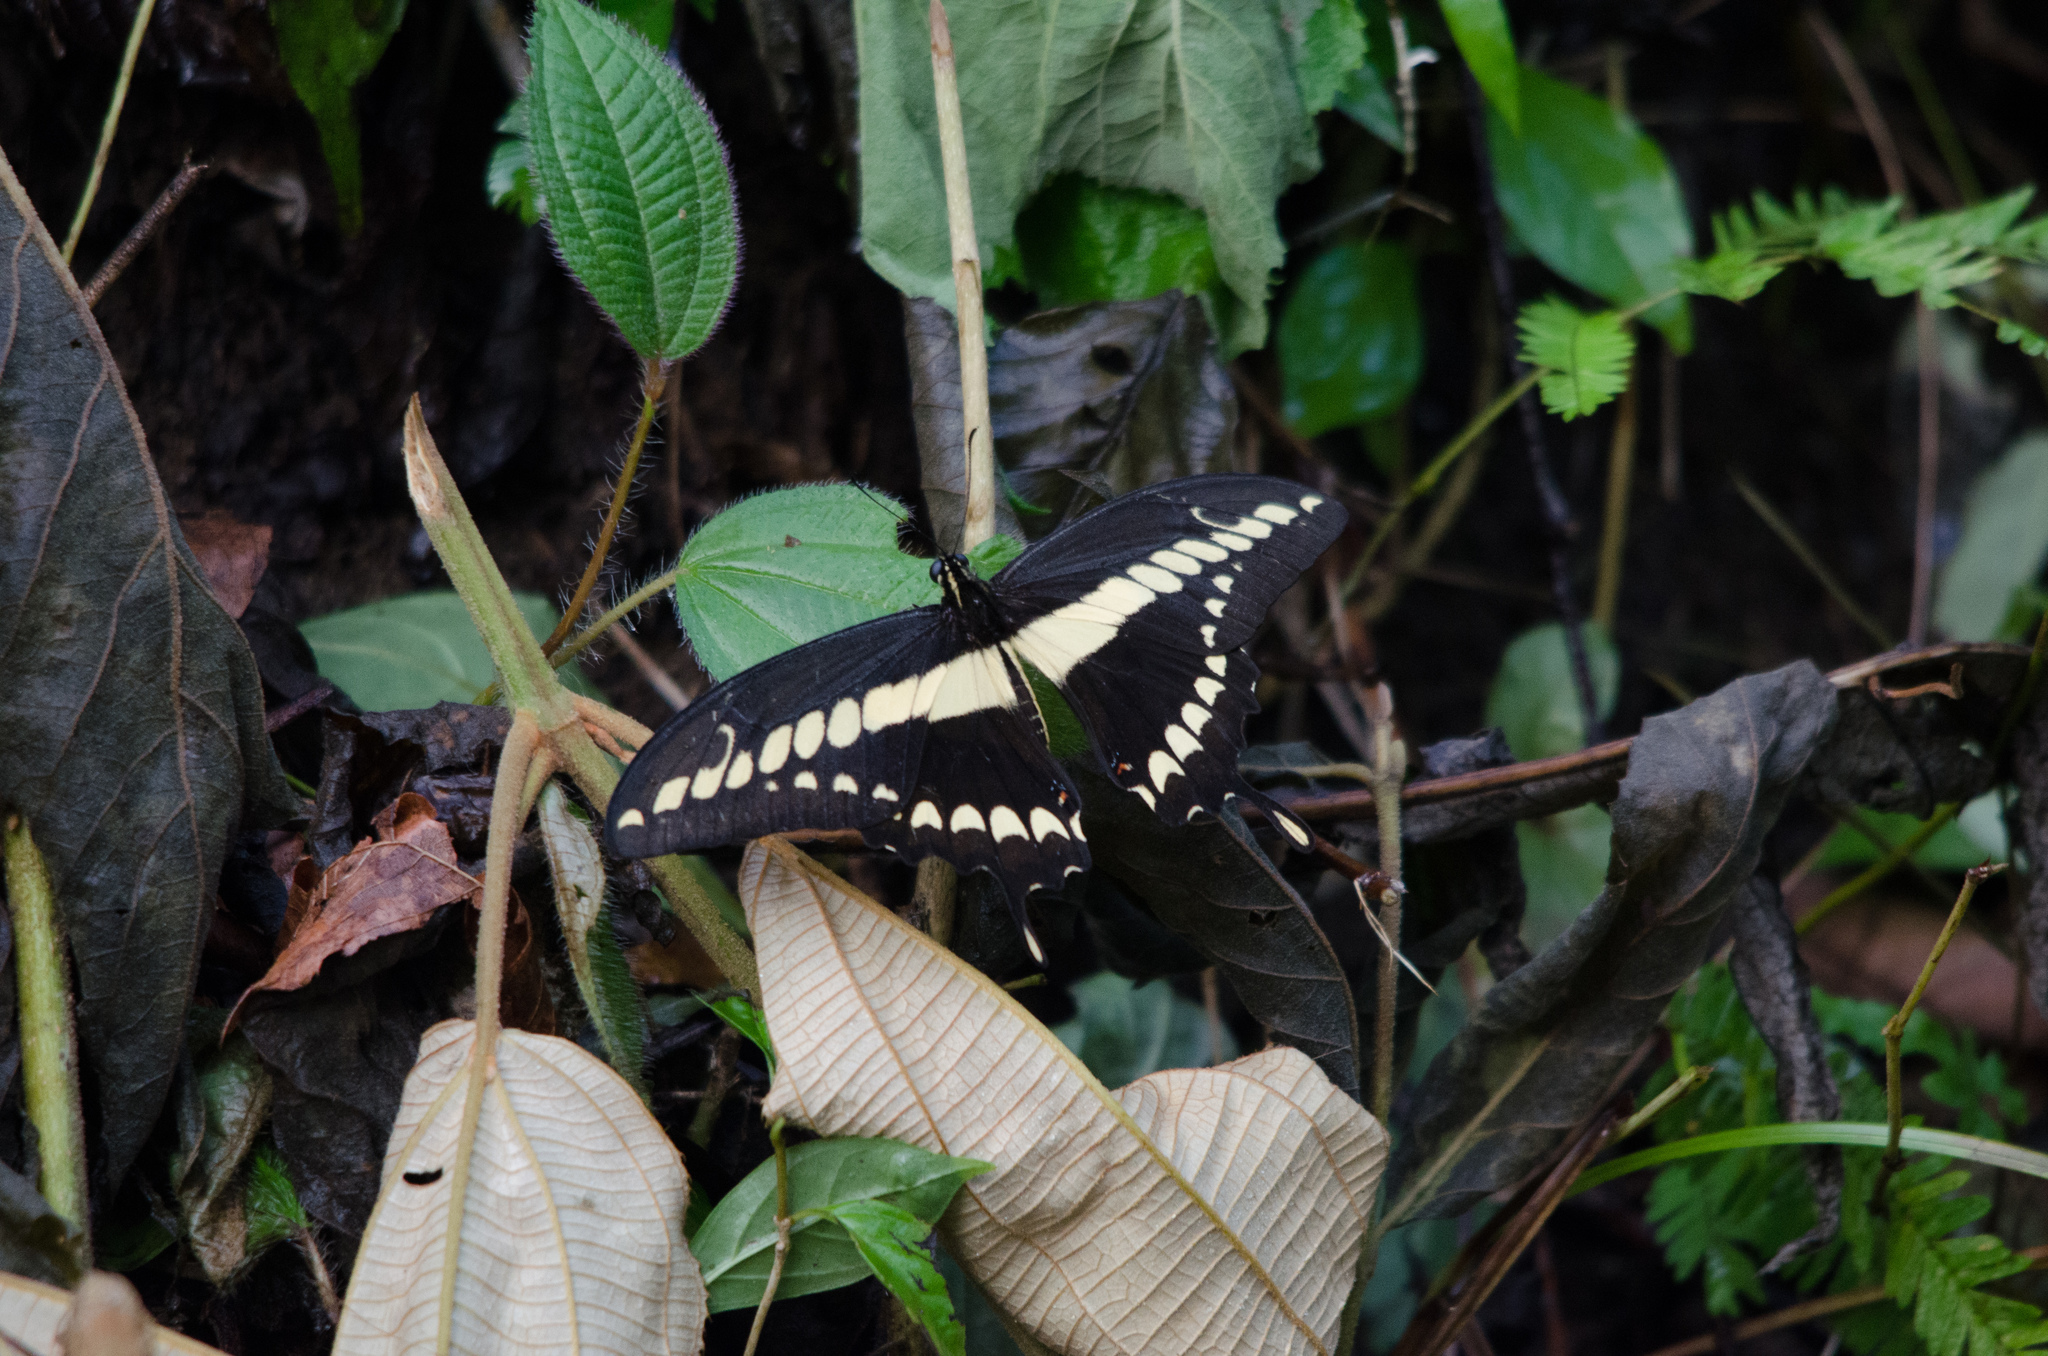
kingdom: Animalia
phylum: Arthropoda
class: Insecta
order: Lepidoptera
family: Papilionidae
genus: Papilio
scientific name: Papilio thoas
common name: King swallowtail
